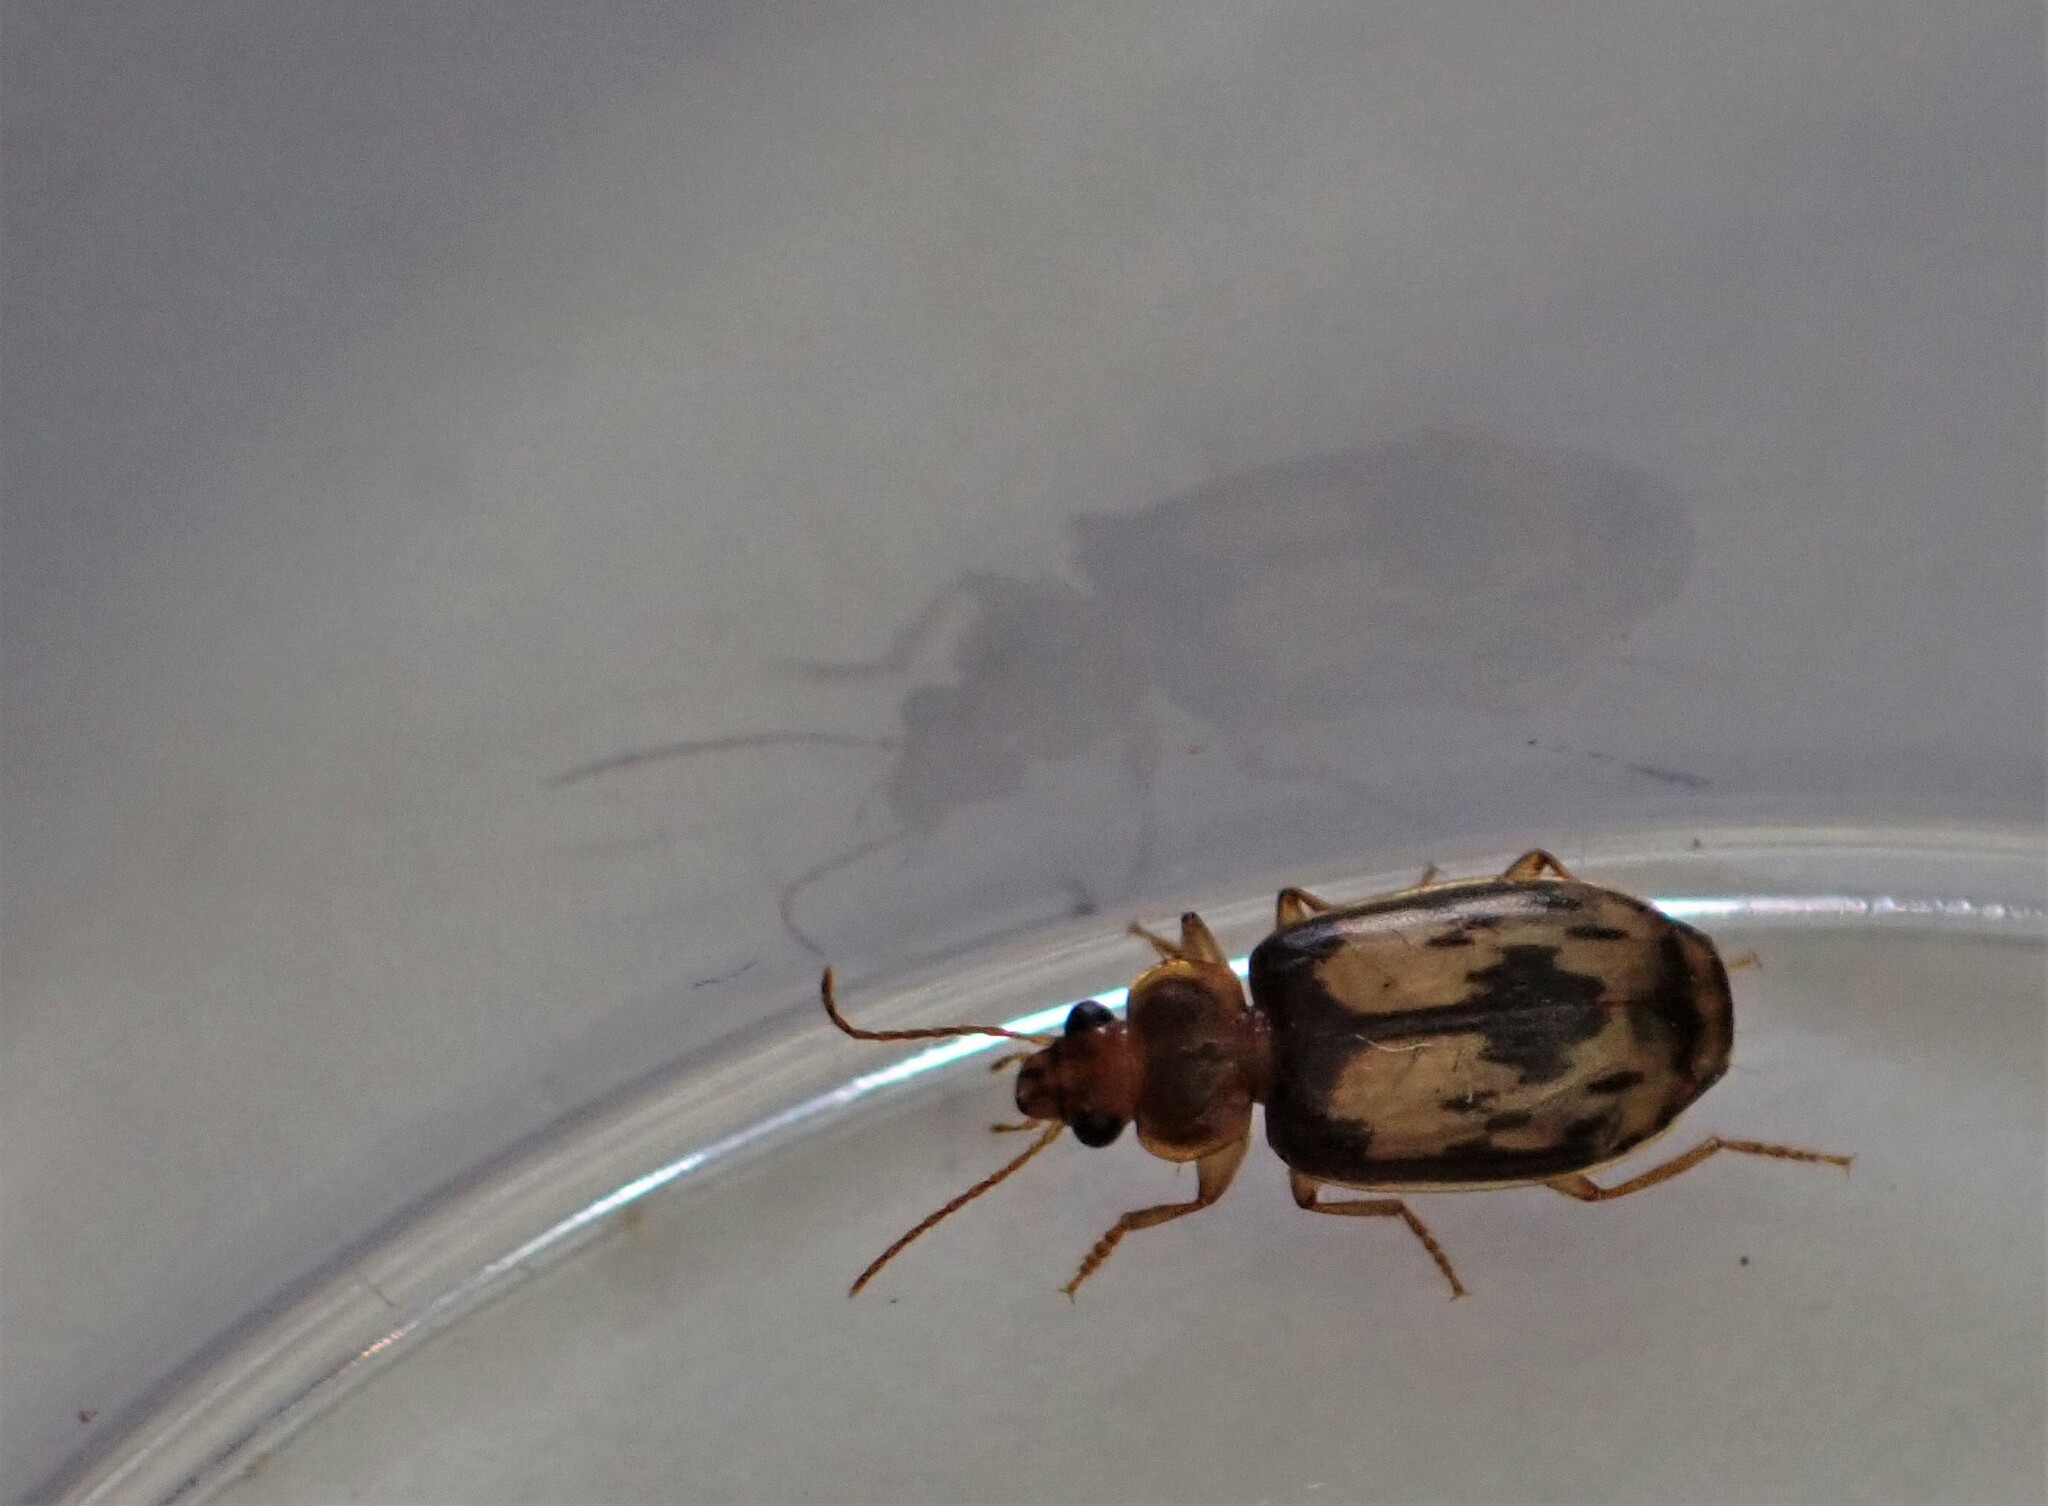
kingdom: Animalia
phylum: Arthropoda
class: Insecta
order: Coleoptera
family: Carabidae
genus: Philophlaeus
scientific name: Philophlaeus luculentus
